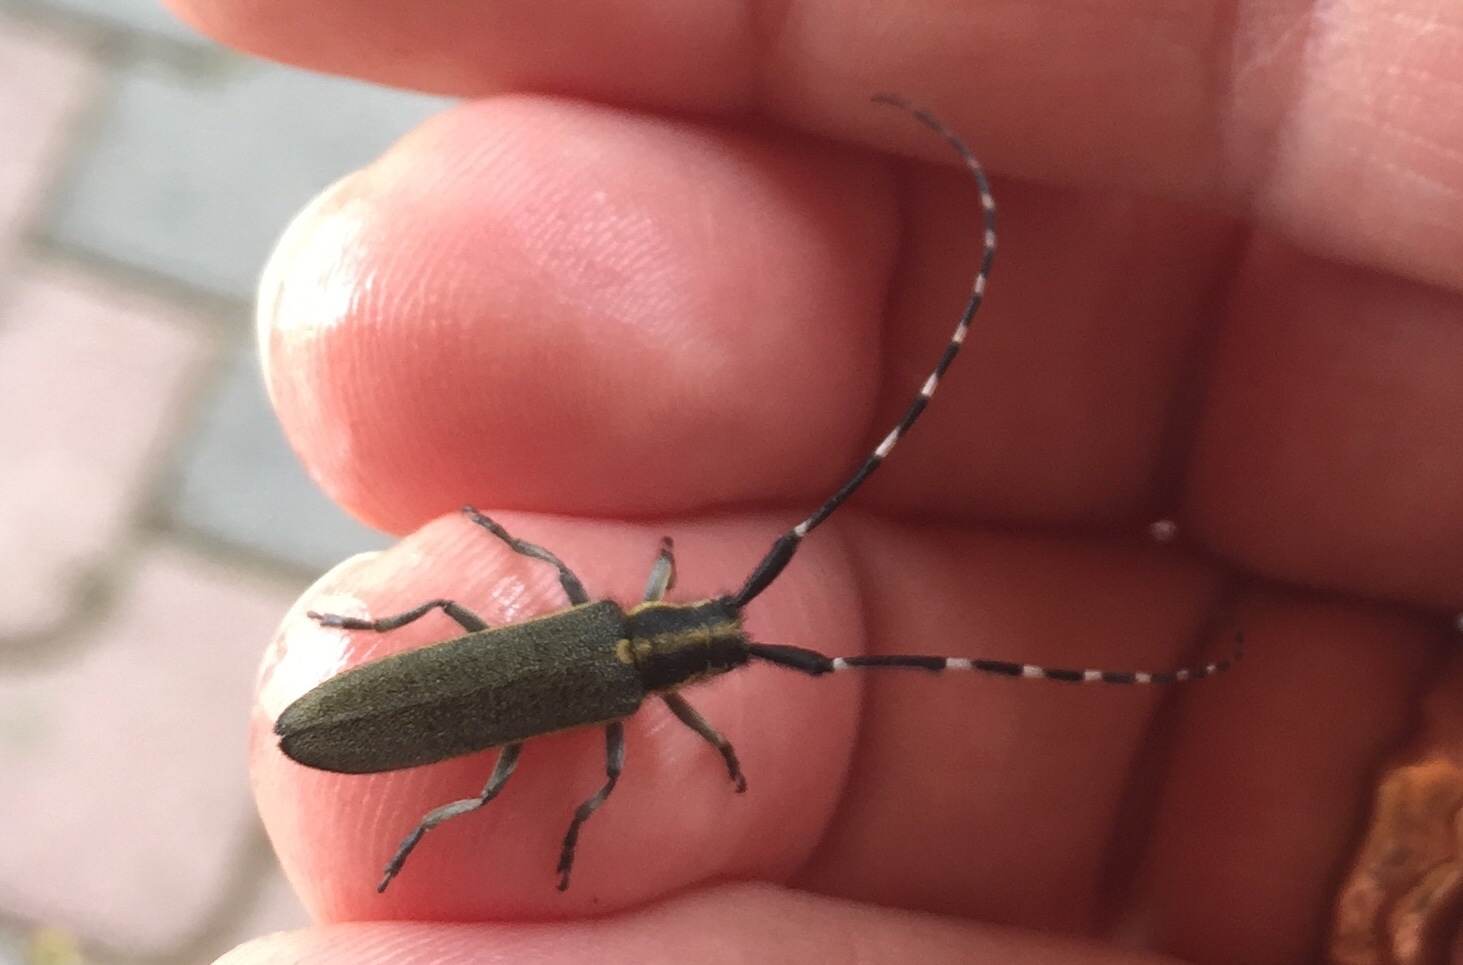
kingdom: Animalia
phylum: Arthropoda
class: Insecta
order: Coleoptera
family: Cerambycidae
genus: Agapanthia
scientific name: Agapanthia cynarae
